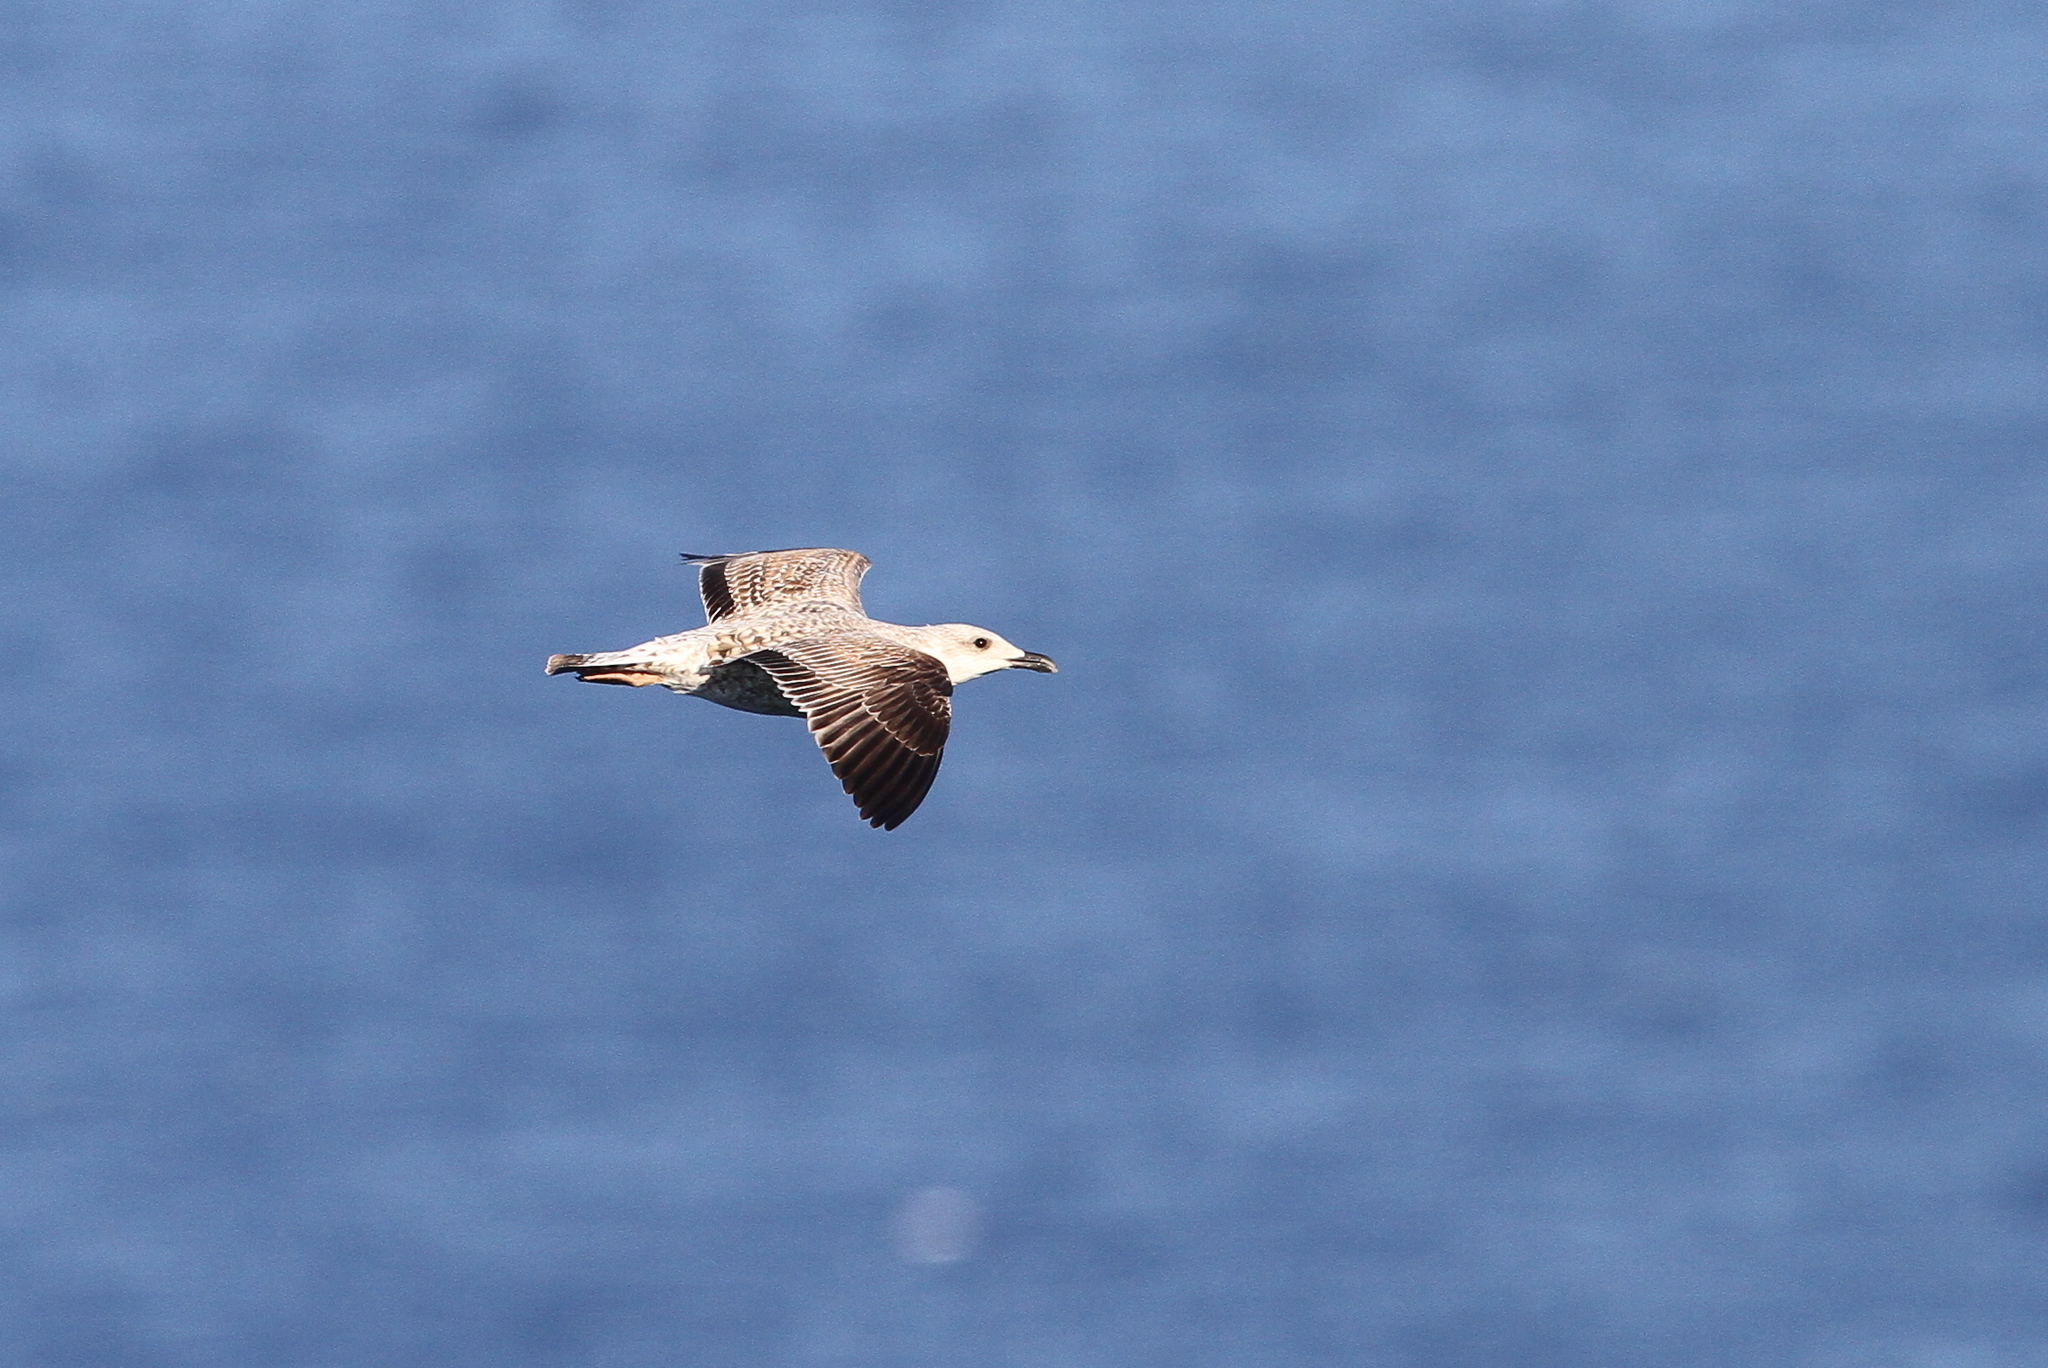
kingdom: Animalia
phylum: Chordata
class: Aves
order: Charadriiformes
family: Laridae
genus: Larus
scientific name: Larus michahellis
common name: Yellow-legged gull
